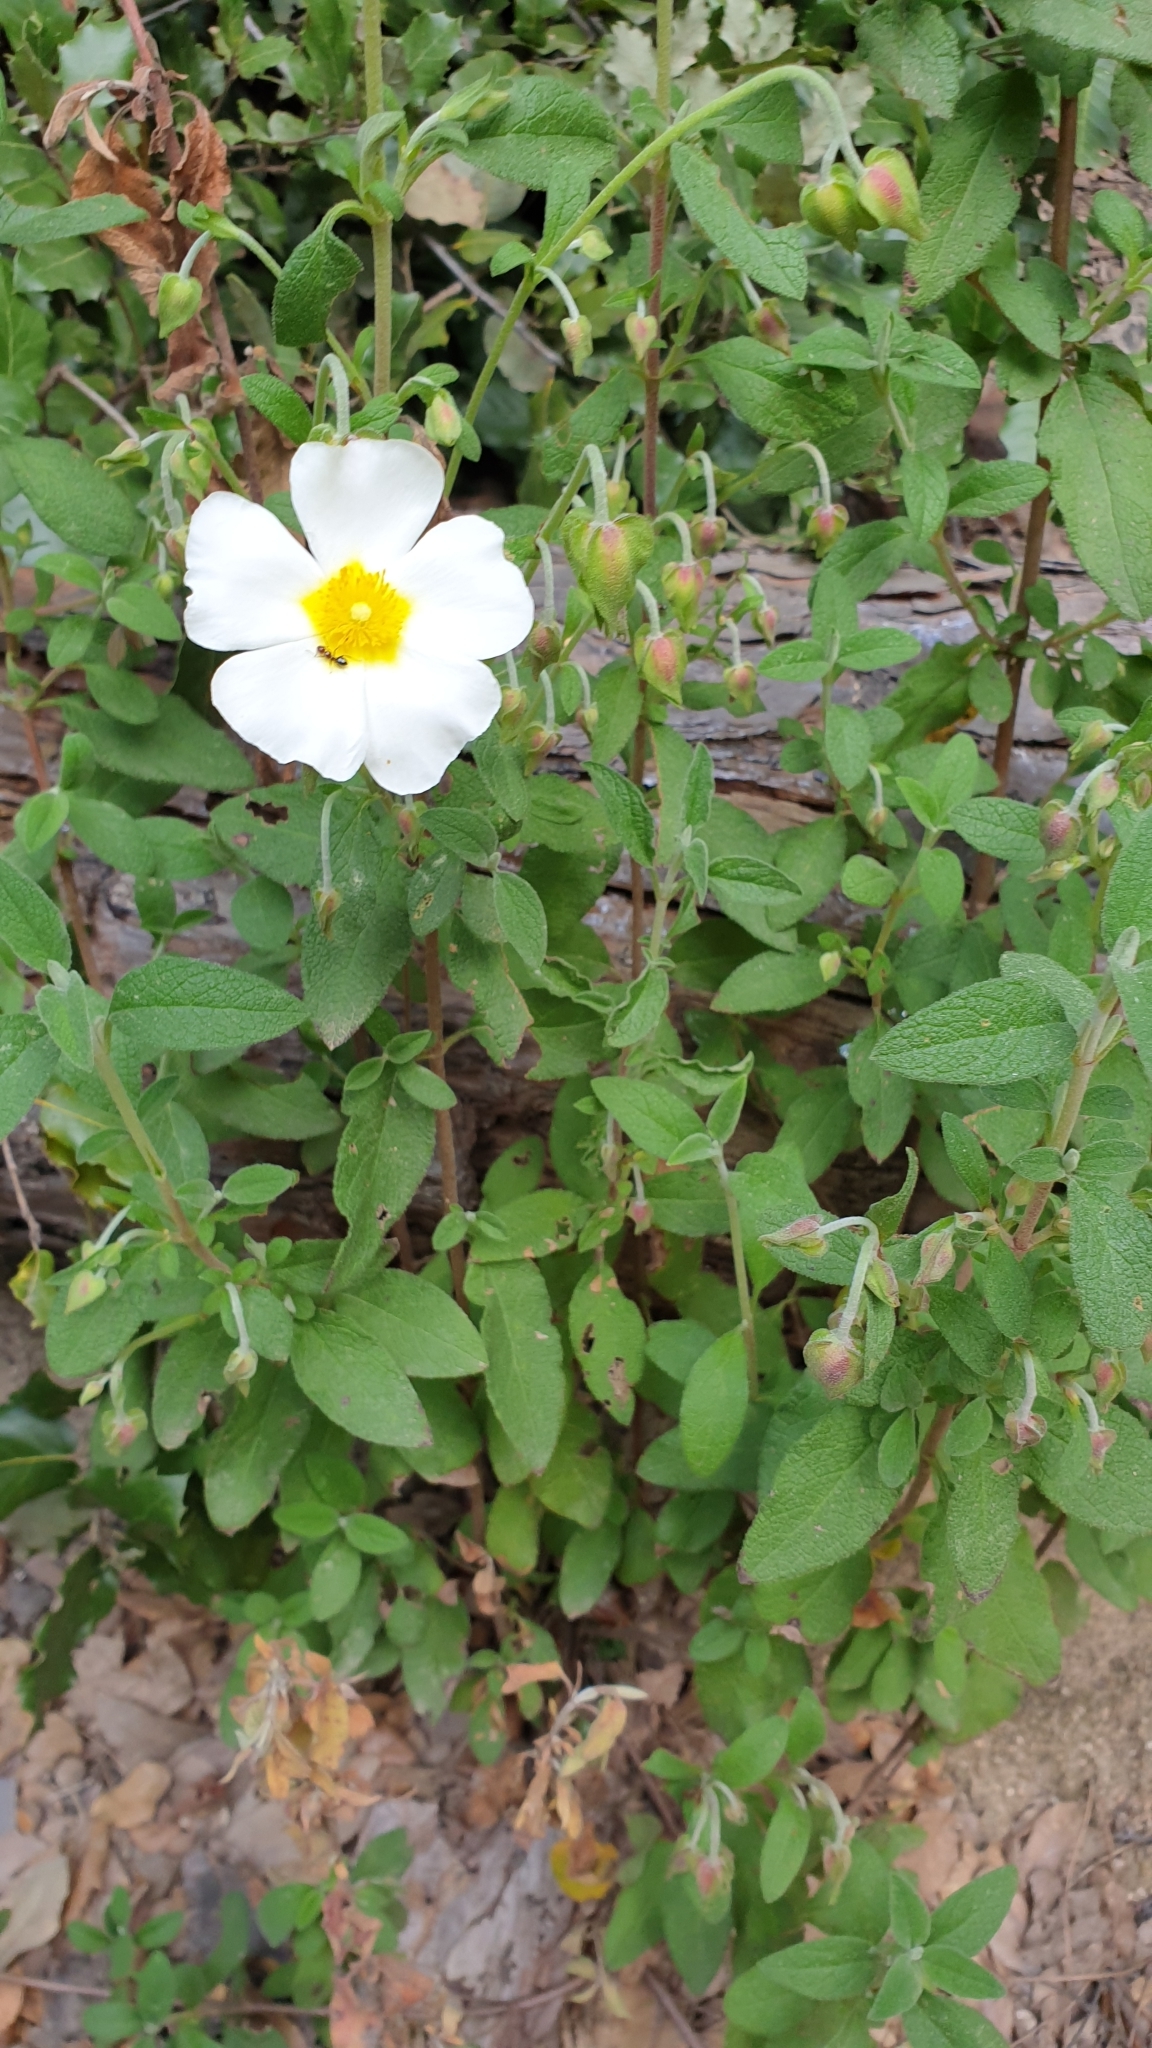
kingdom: Plantae
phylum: Tracheophyta
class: Magnoliopsida
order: Malvales
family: Cistaceae
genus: Cistus
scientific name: Cistus salviifolius
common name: Salvia cistus
